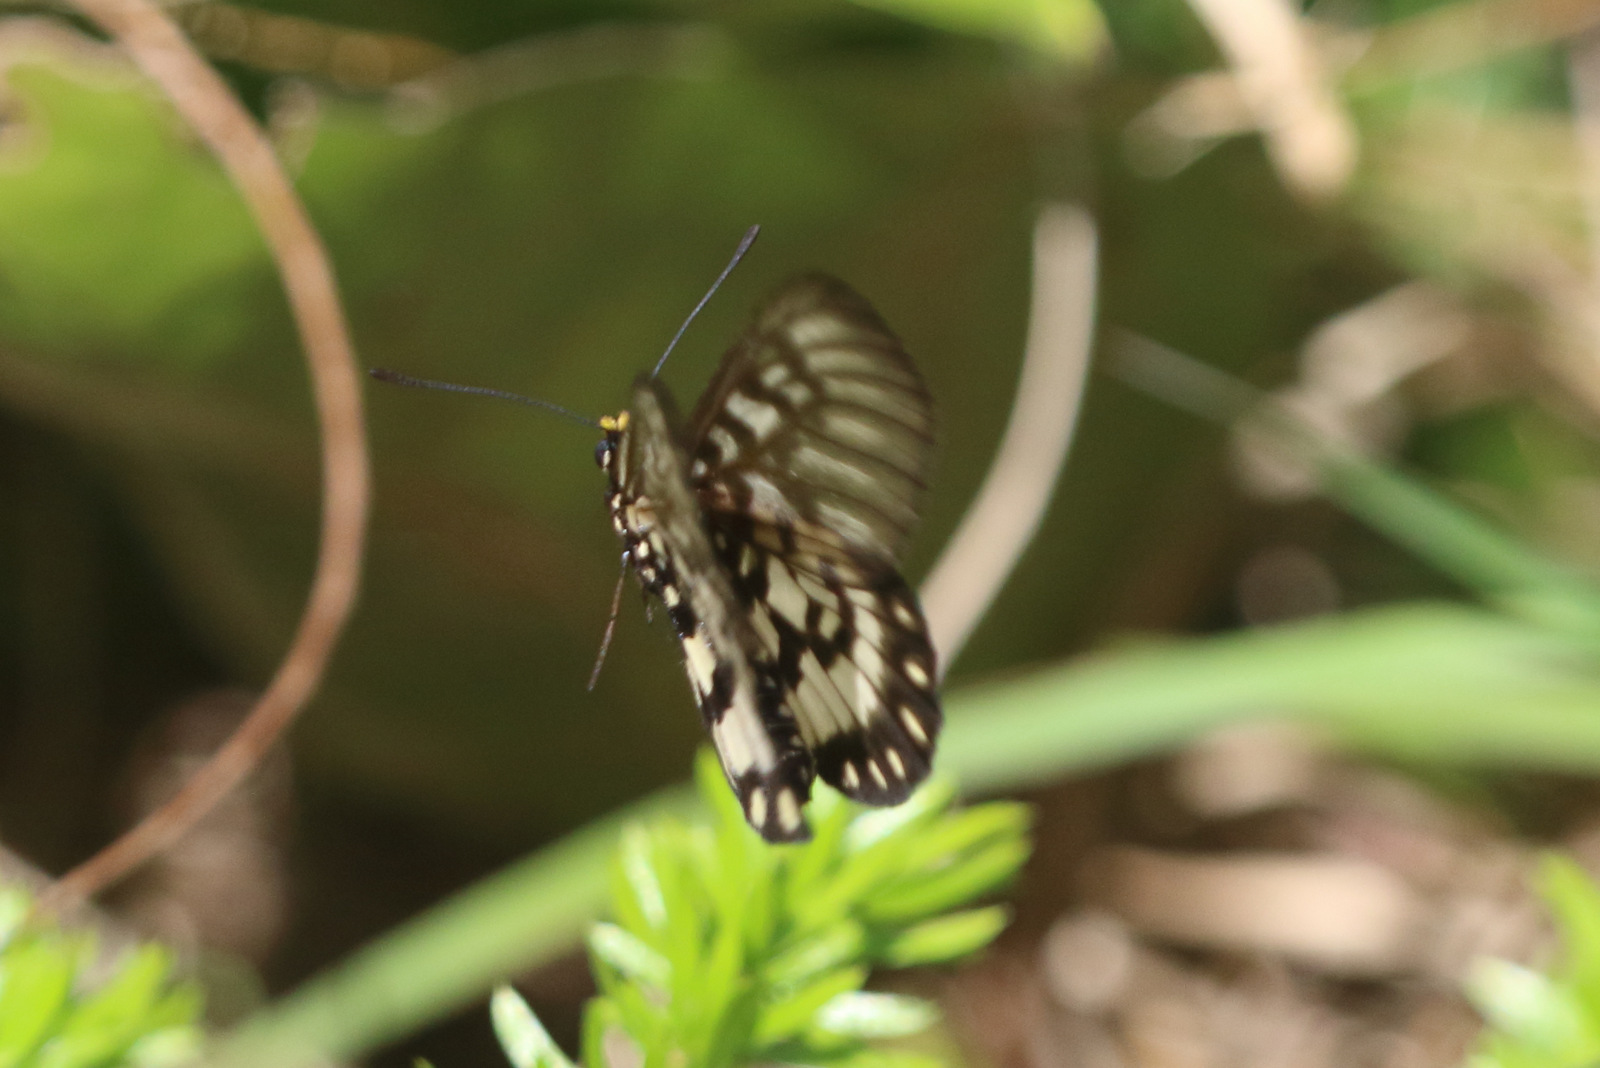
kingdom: Animalia
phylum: Arthropoda
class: Insecta
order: Lepidoptera
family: Nymphalidae
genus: Acraea
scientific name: Acraea andromacha
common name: Glasswing
